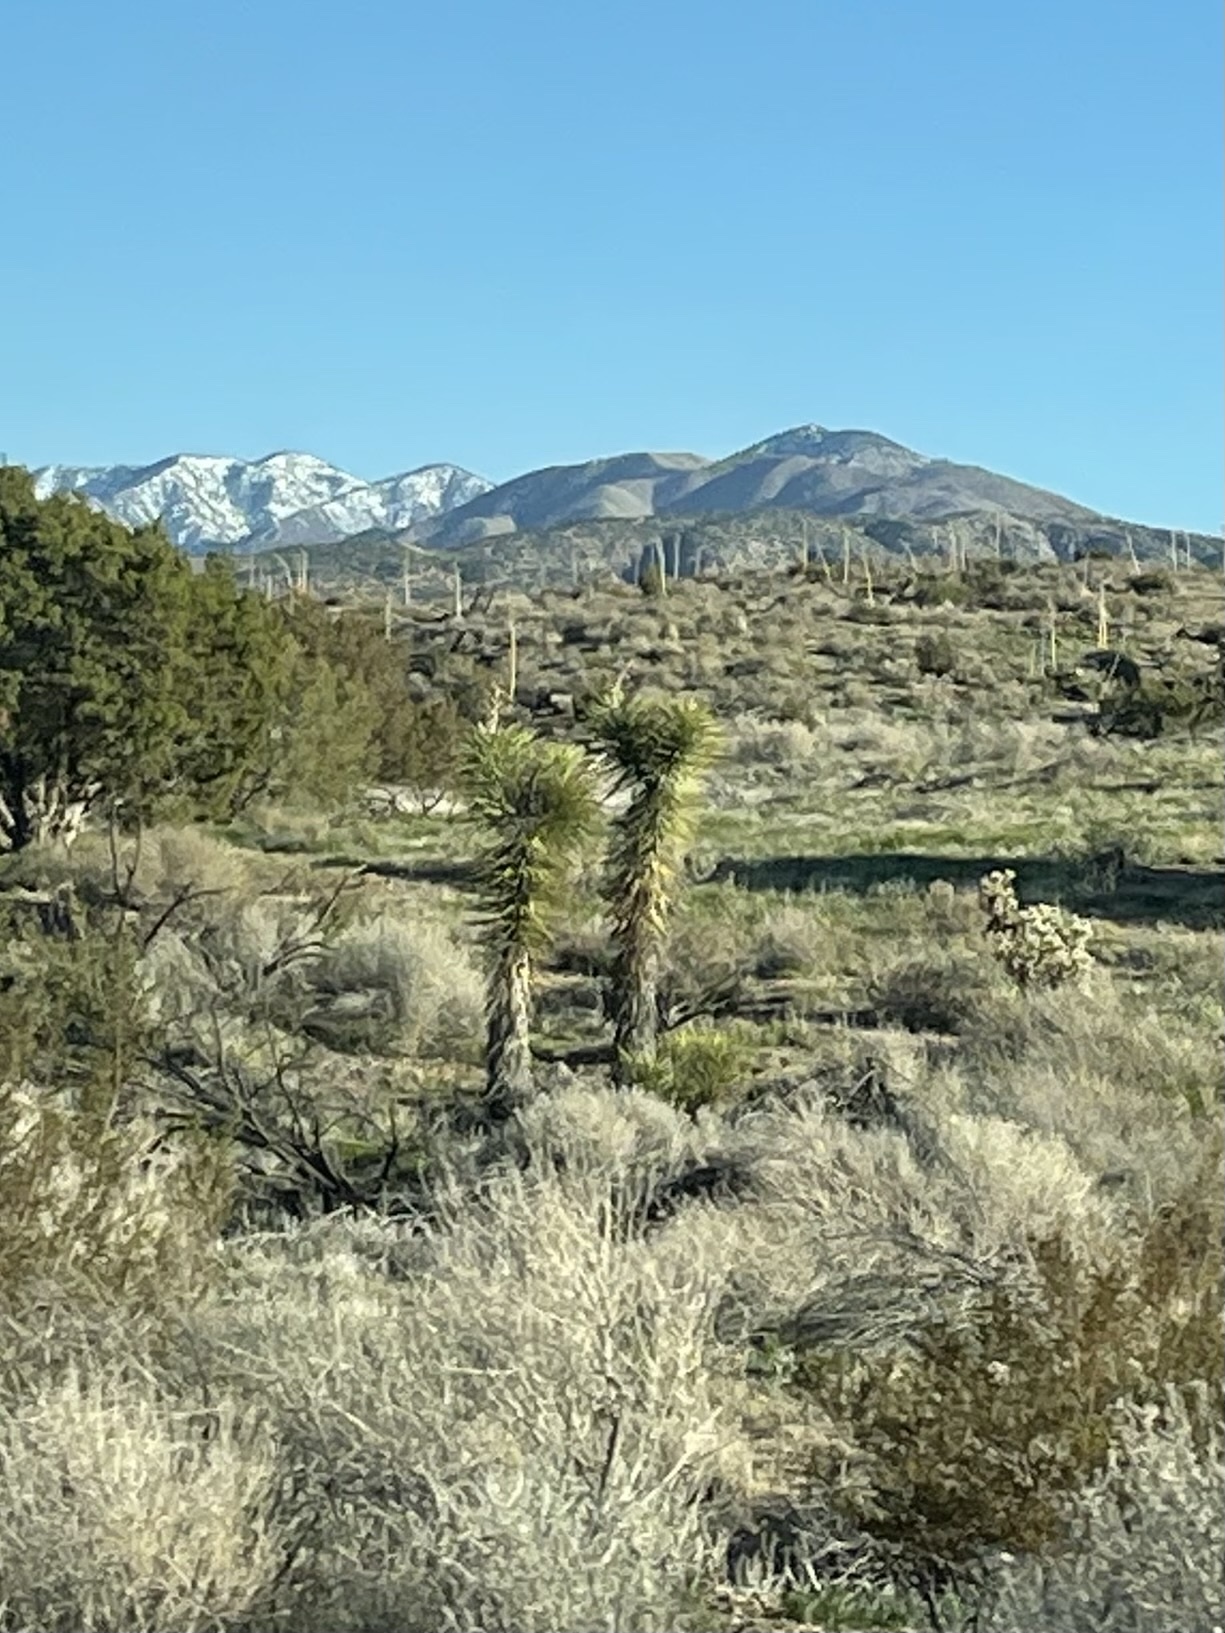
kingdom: Plantae
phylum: Tracheophyta
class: Liliopsida
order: Asparagales
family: Asparagaceae
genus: Yucca
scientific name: Yucca brevifolia
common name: Joshua tree
